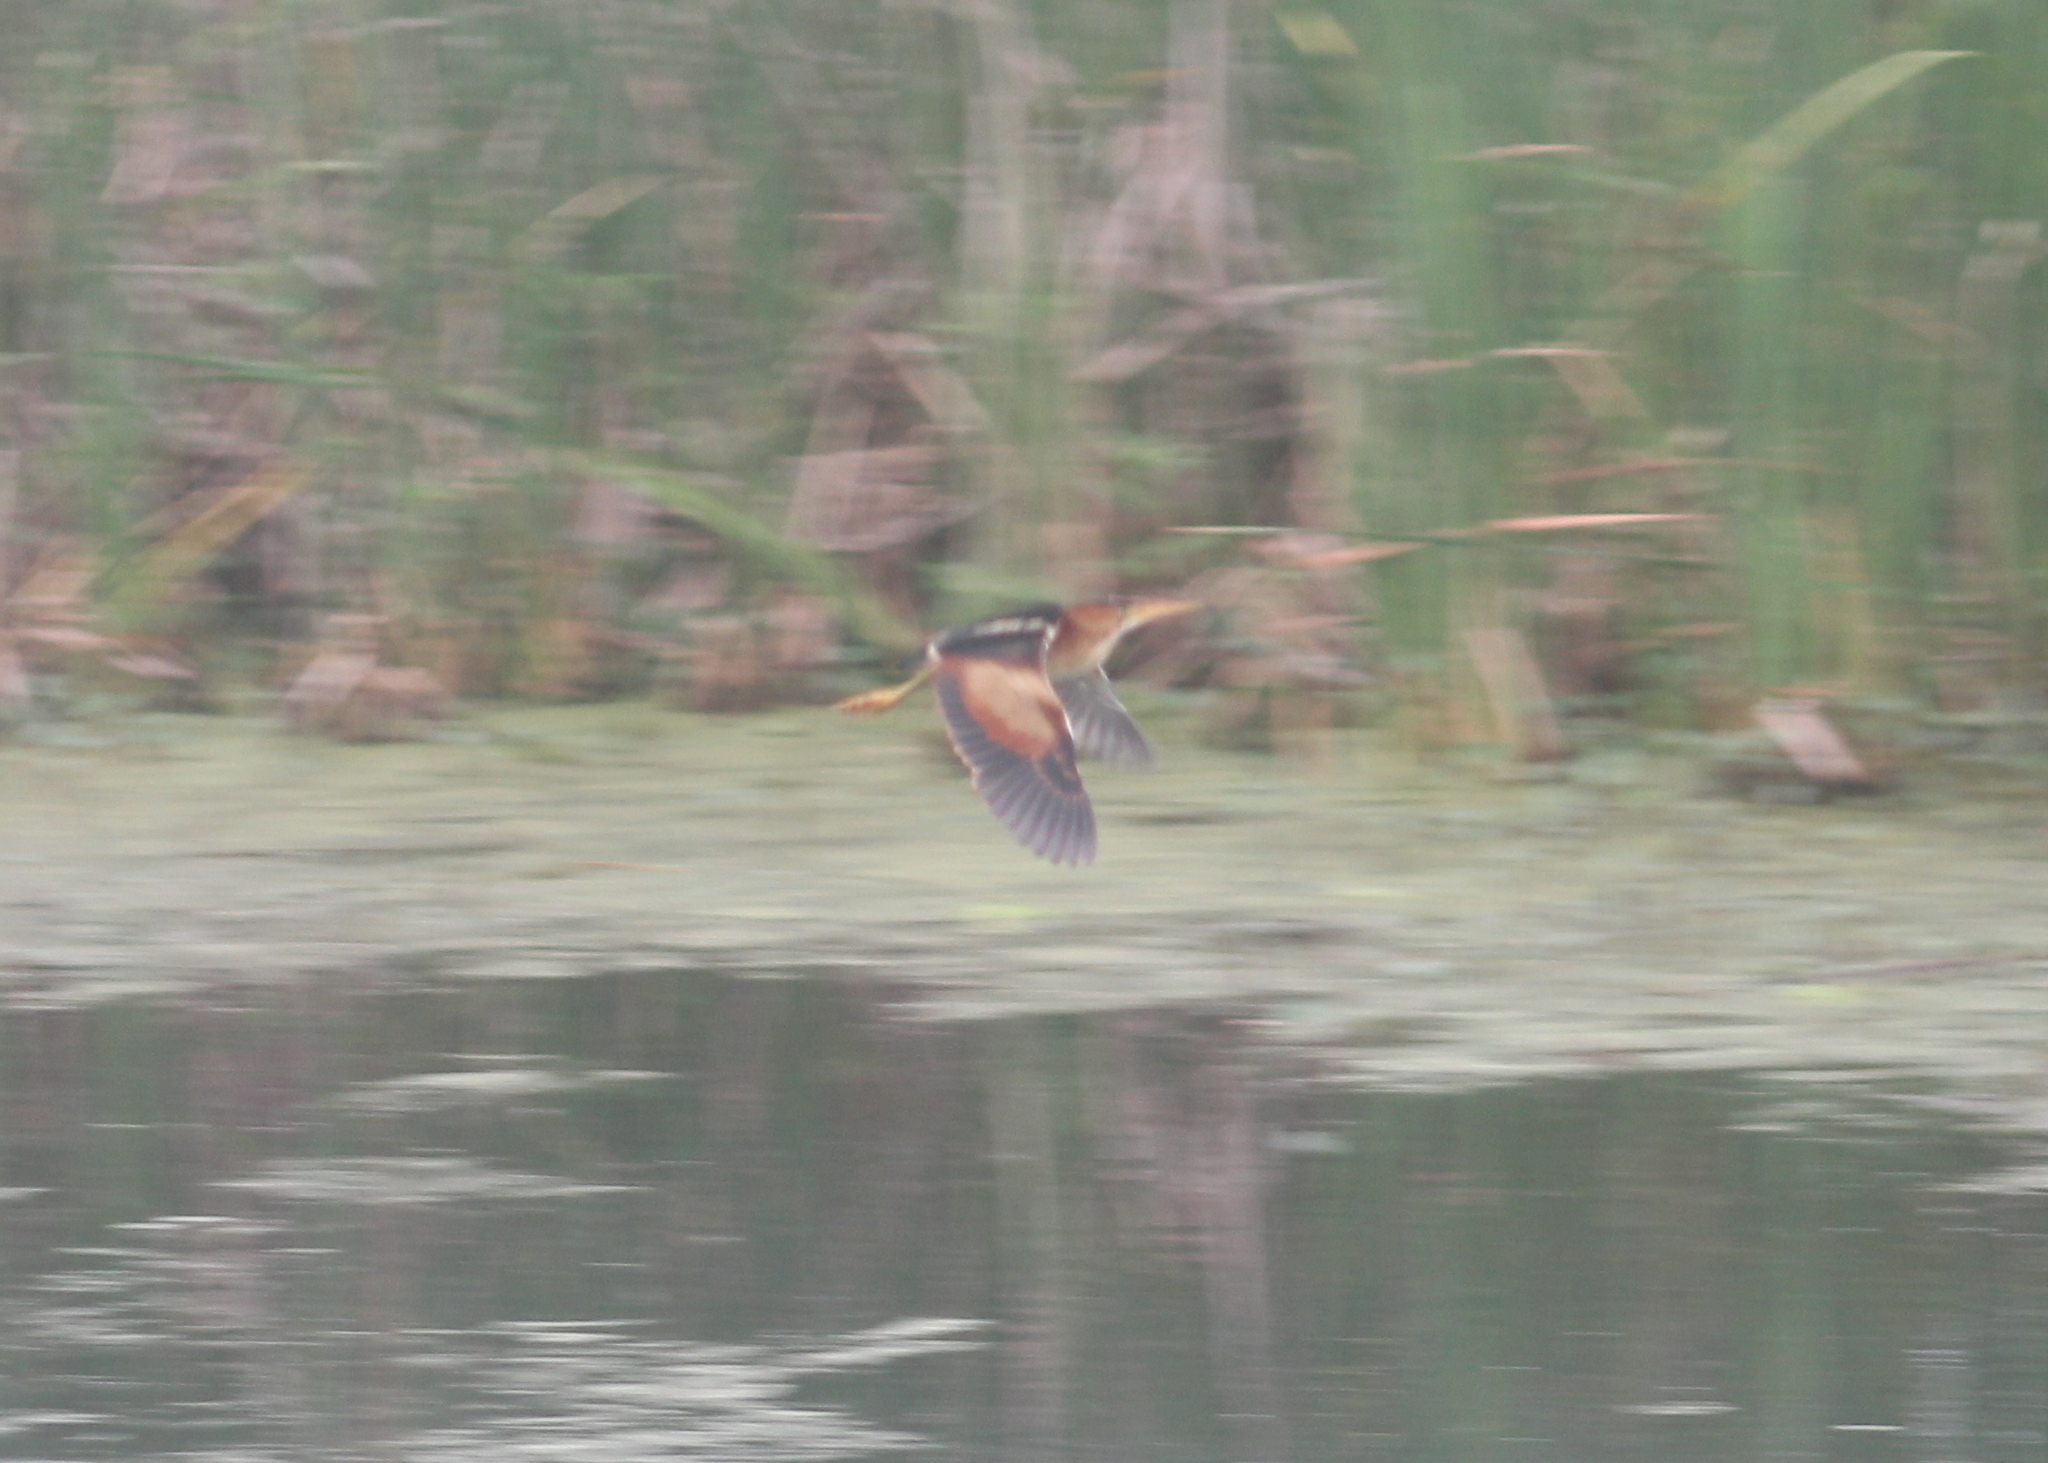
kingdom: Animalia
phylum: Chordata
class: Aves
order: Pelecaniformes
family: Ardeidae
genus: Ixobrychus
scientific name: Ixobrychus exilis
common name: Least bittern
